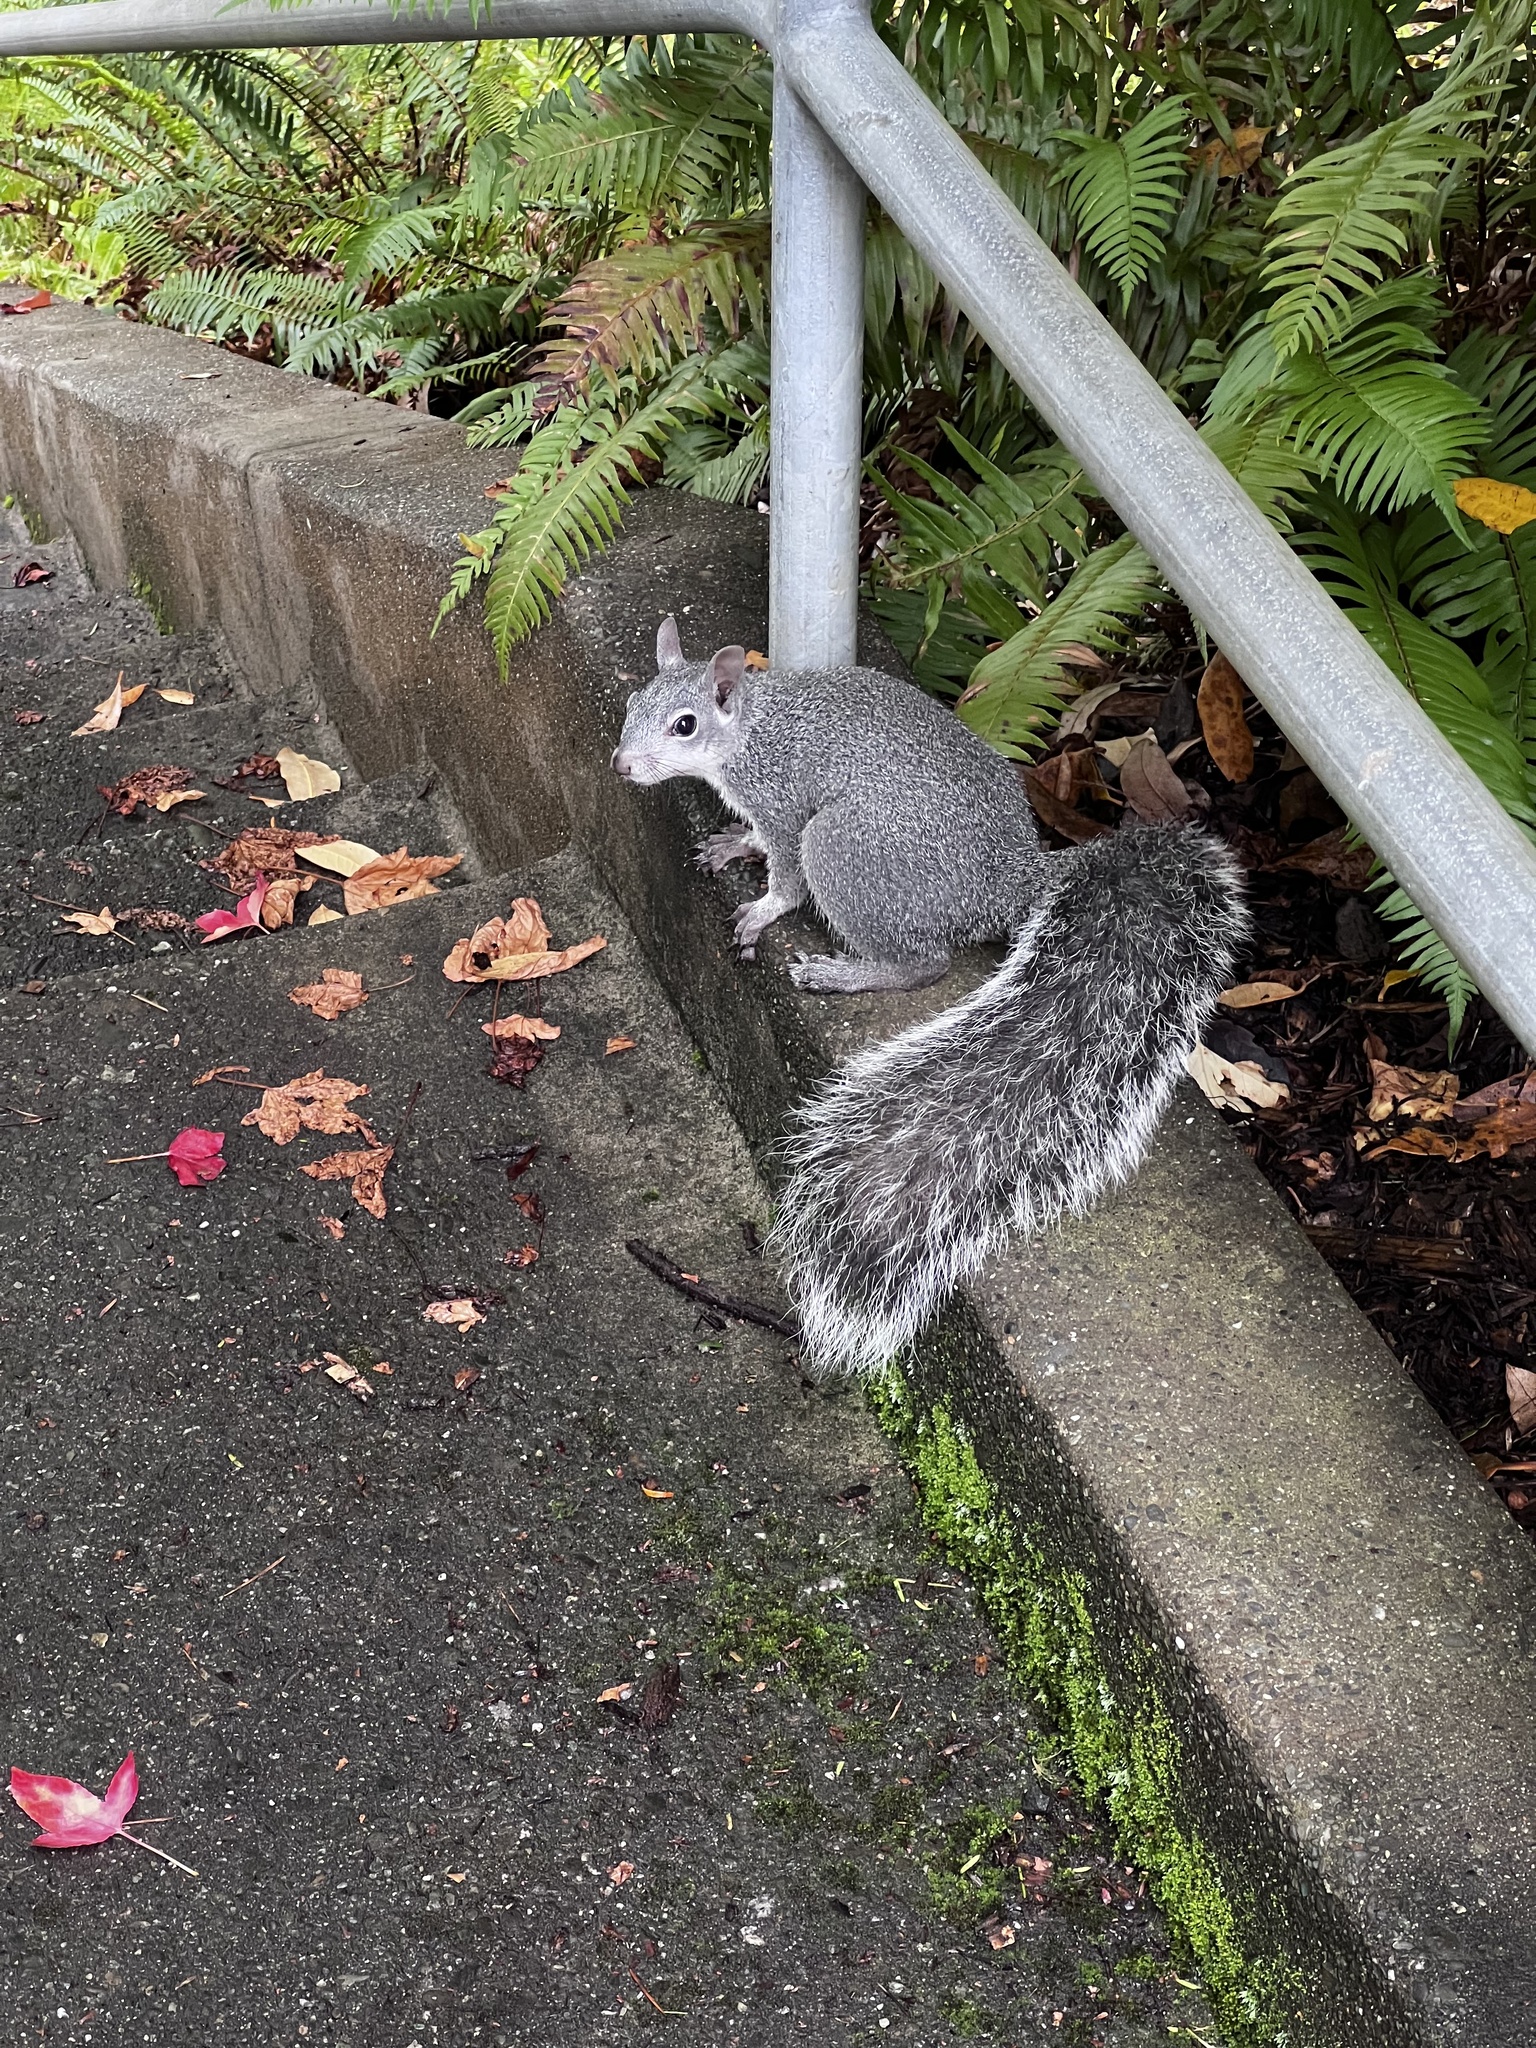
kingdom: Animalia
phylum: Chordata
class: Mammalia
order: Rodentia
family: Sciuridae
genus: Sciurus
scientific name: Sciurus griseus
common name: Western gray squirrel
